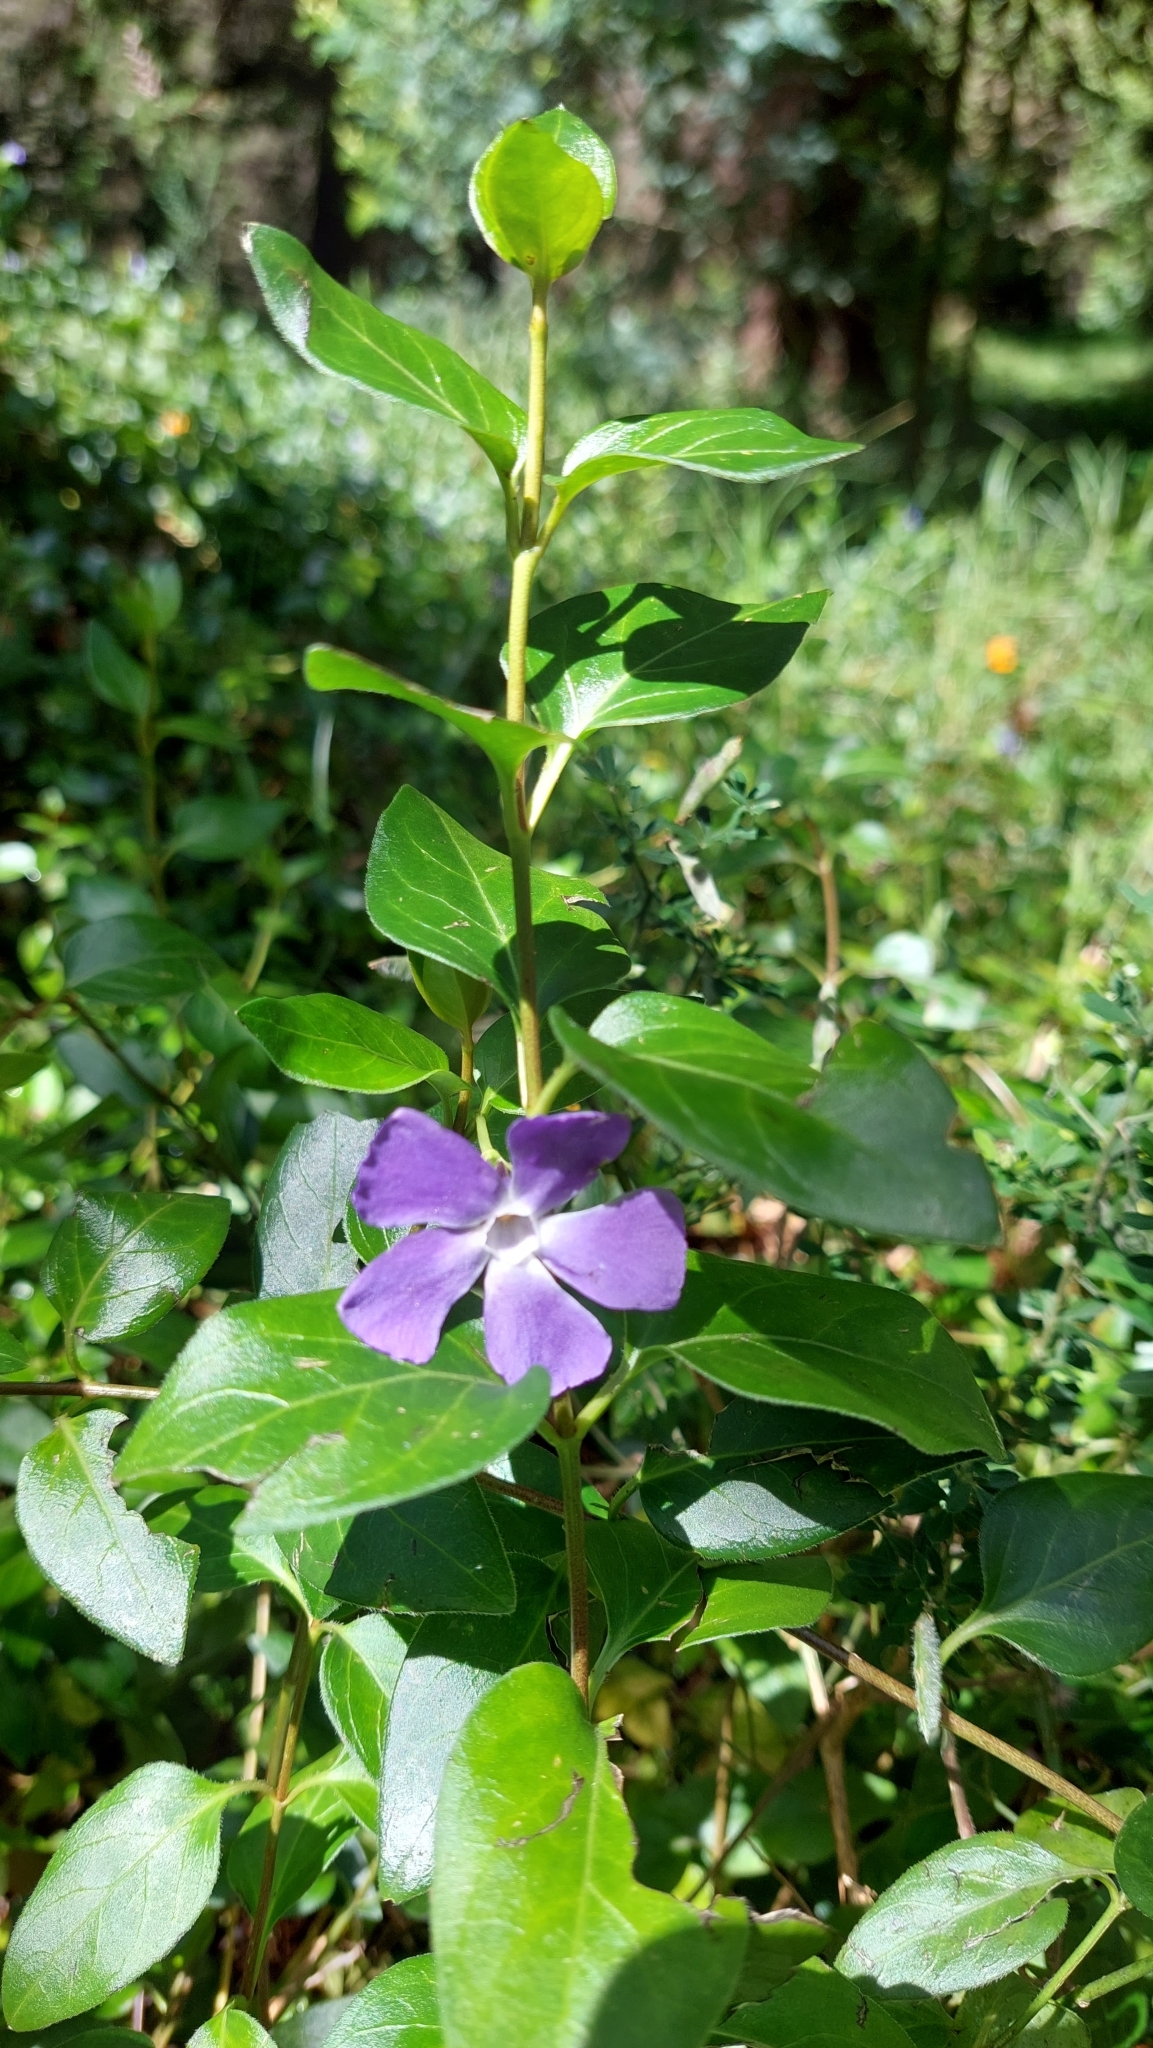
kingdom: Plantae
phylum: Tracheophyta
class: Magnoliopsida
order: Gentianales
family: Apocynaceae
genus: Vinca
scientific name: Vinca major
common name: Greater periwinkle
